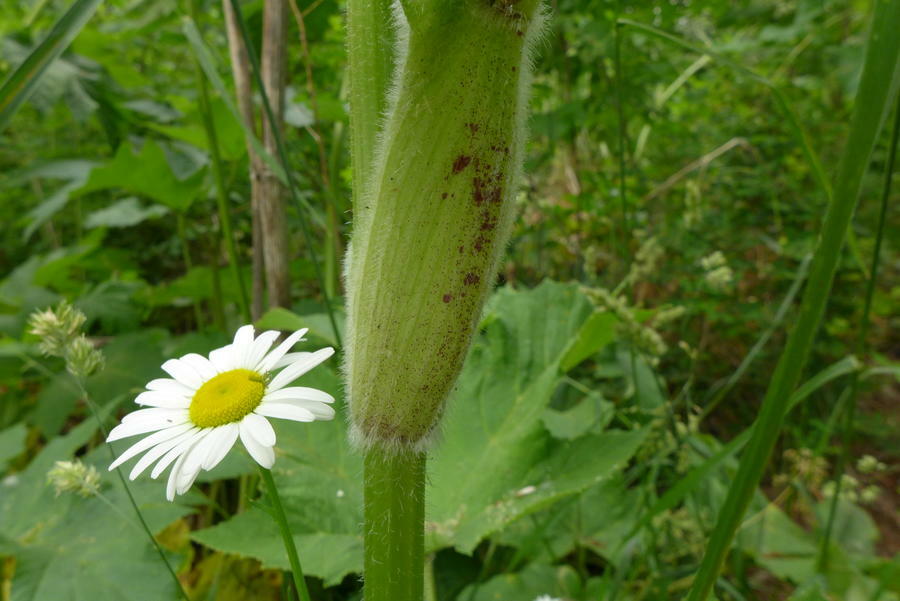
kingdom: Plantae
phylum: Tracheophyta
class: Magnoliopsida
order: Apiales
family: Apiaceae
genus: Heracleum
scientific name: Heracleum maximum
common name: American cow parsnip
